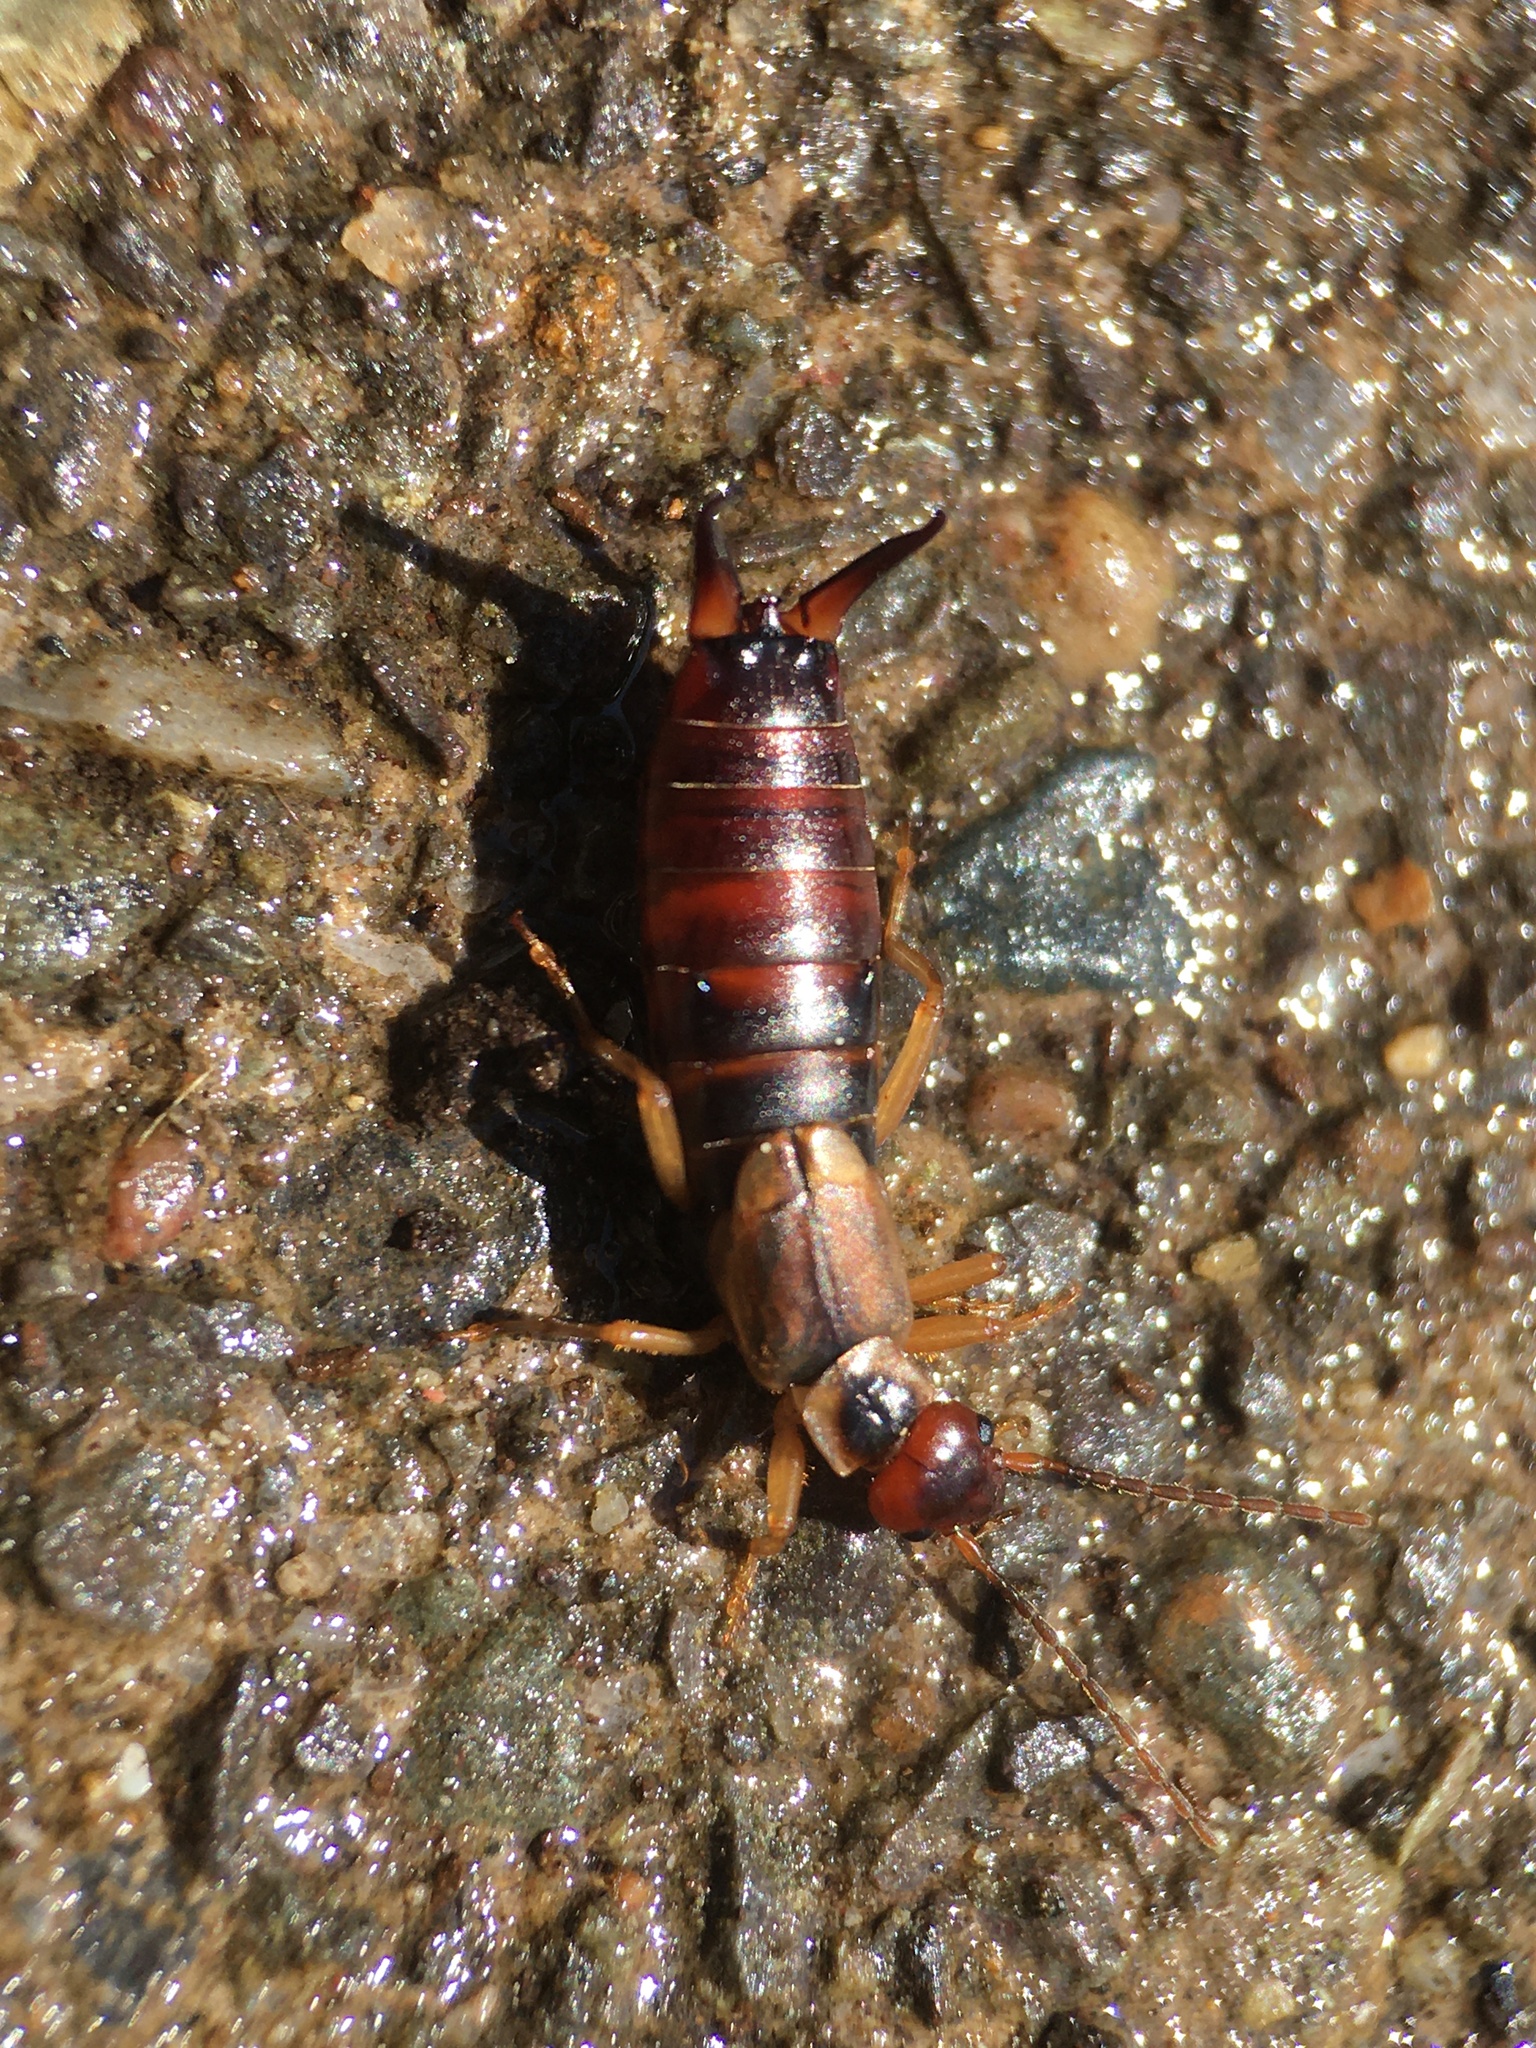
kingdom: Animalia
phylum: Arthropoda
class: Insecta
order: Dermaptera
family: Forficulidae
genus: Forficula
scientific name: Forficula
